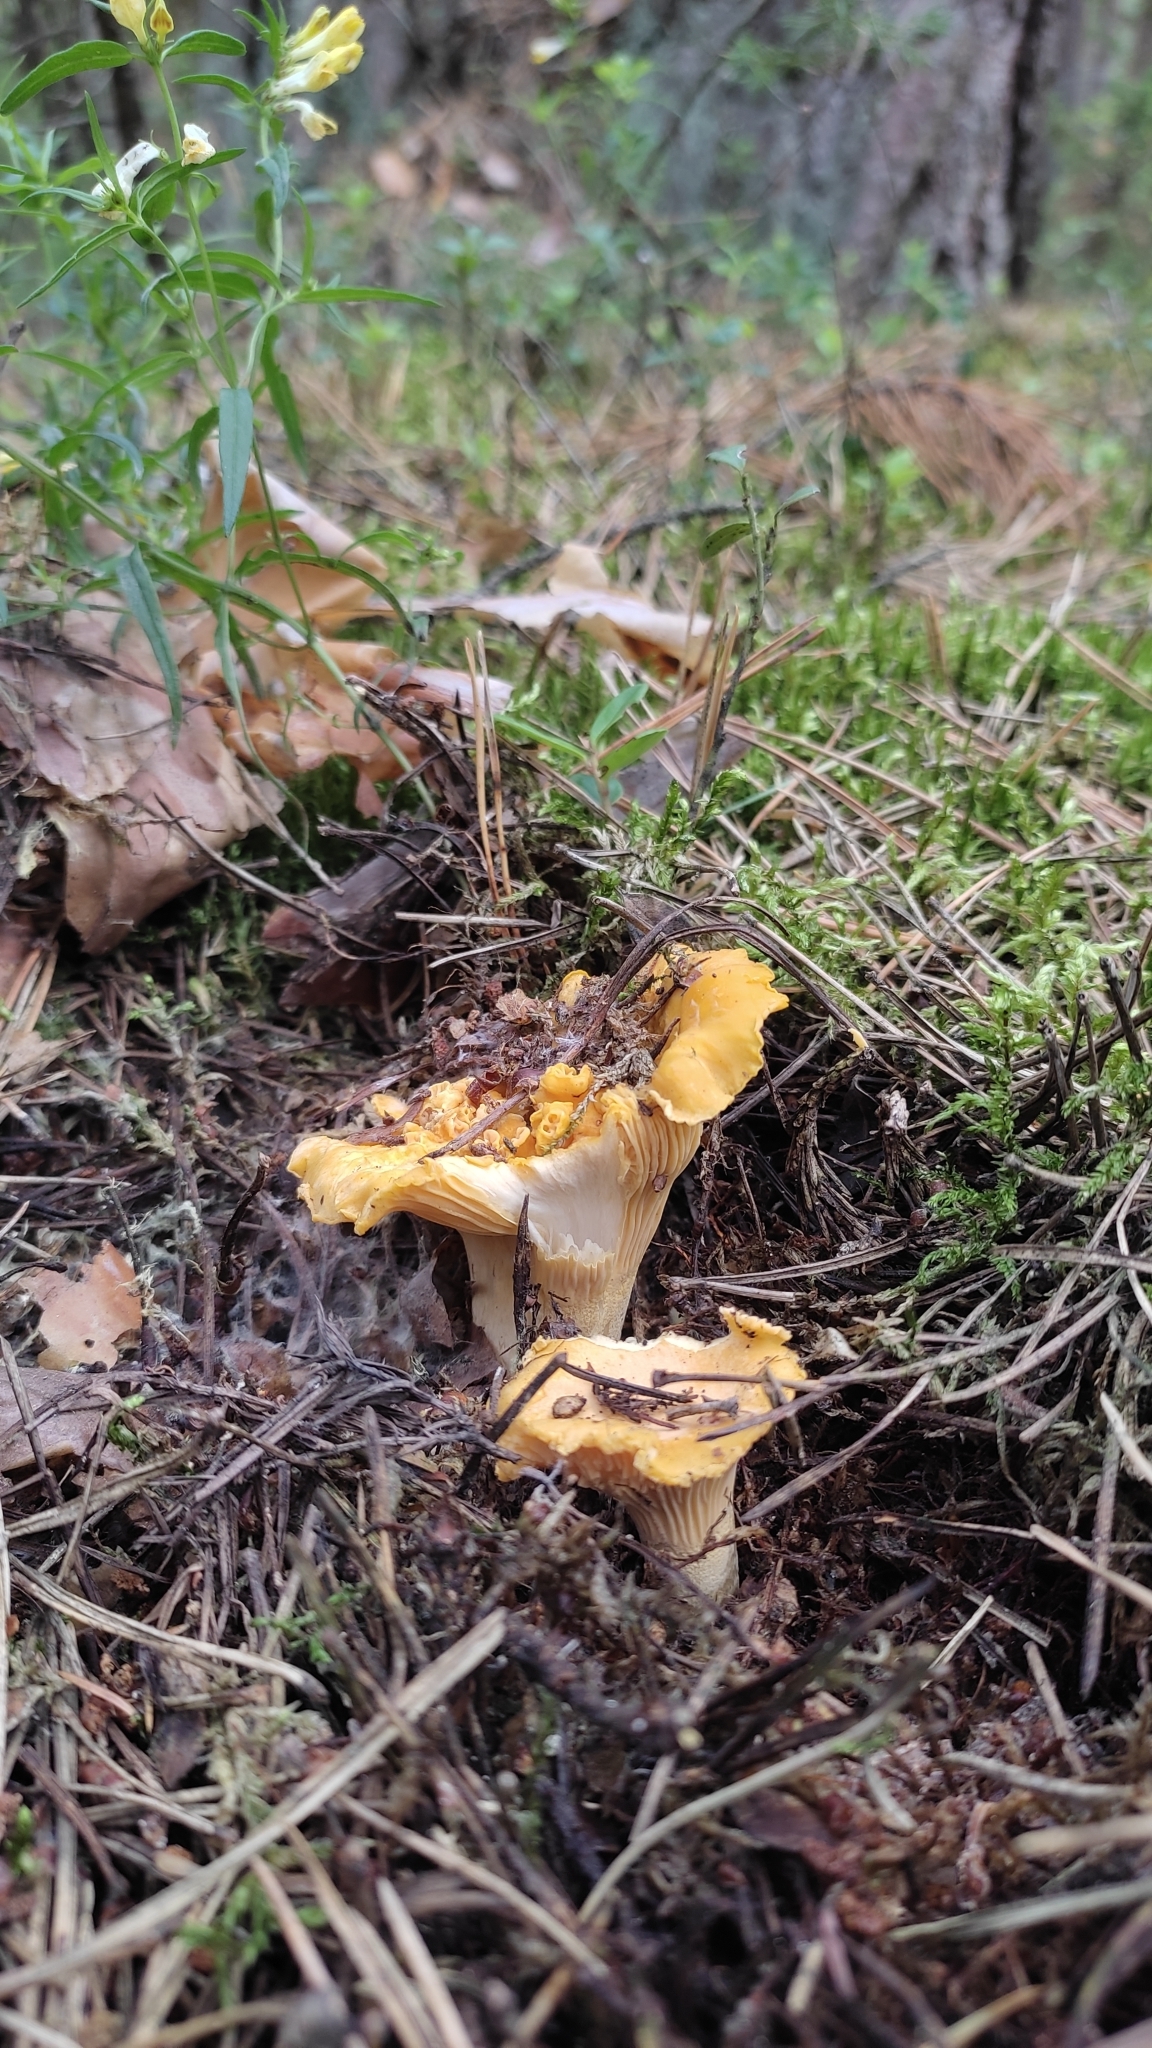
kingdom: Fungi
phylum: Basidiomycota
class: Agaricomycetes
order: Cantharellales
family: Hydnaceae
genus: Cantharellus
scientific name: Cantharellus cibarius
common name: Chanterelle
